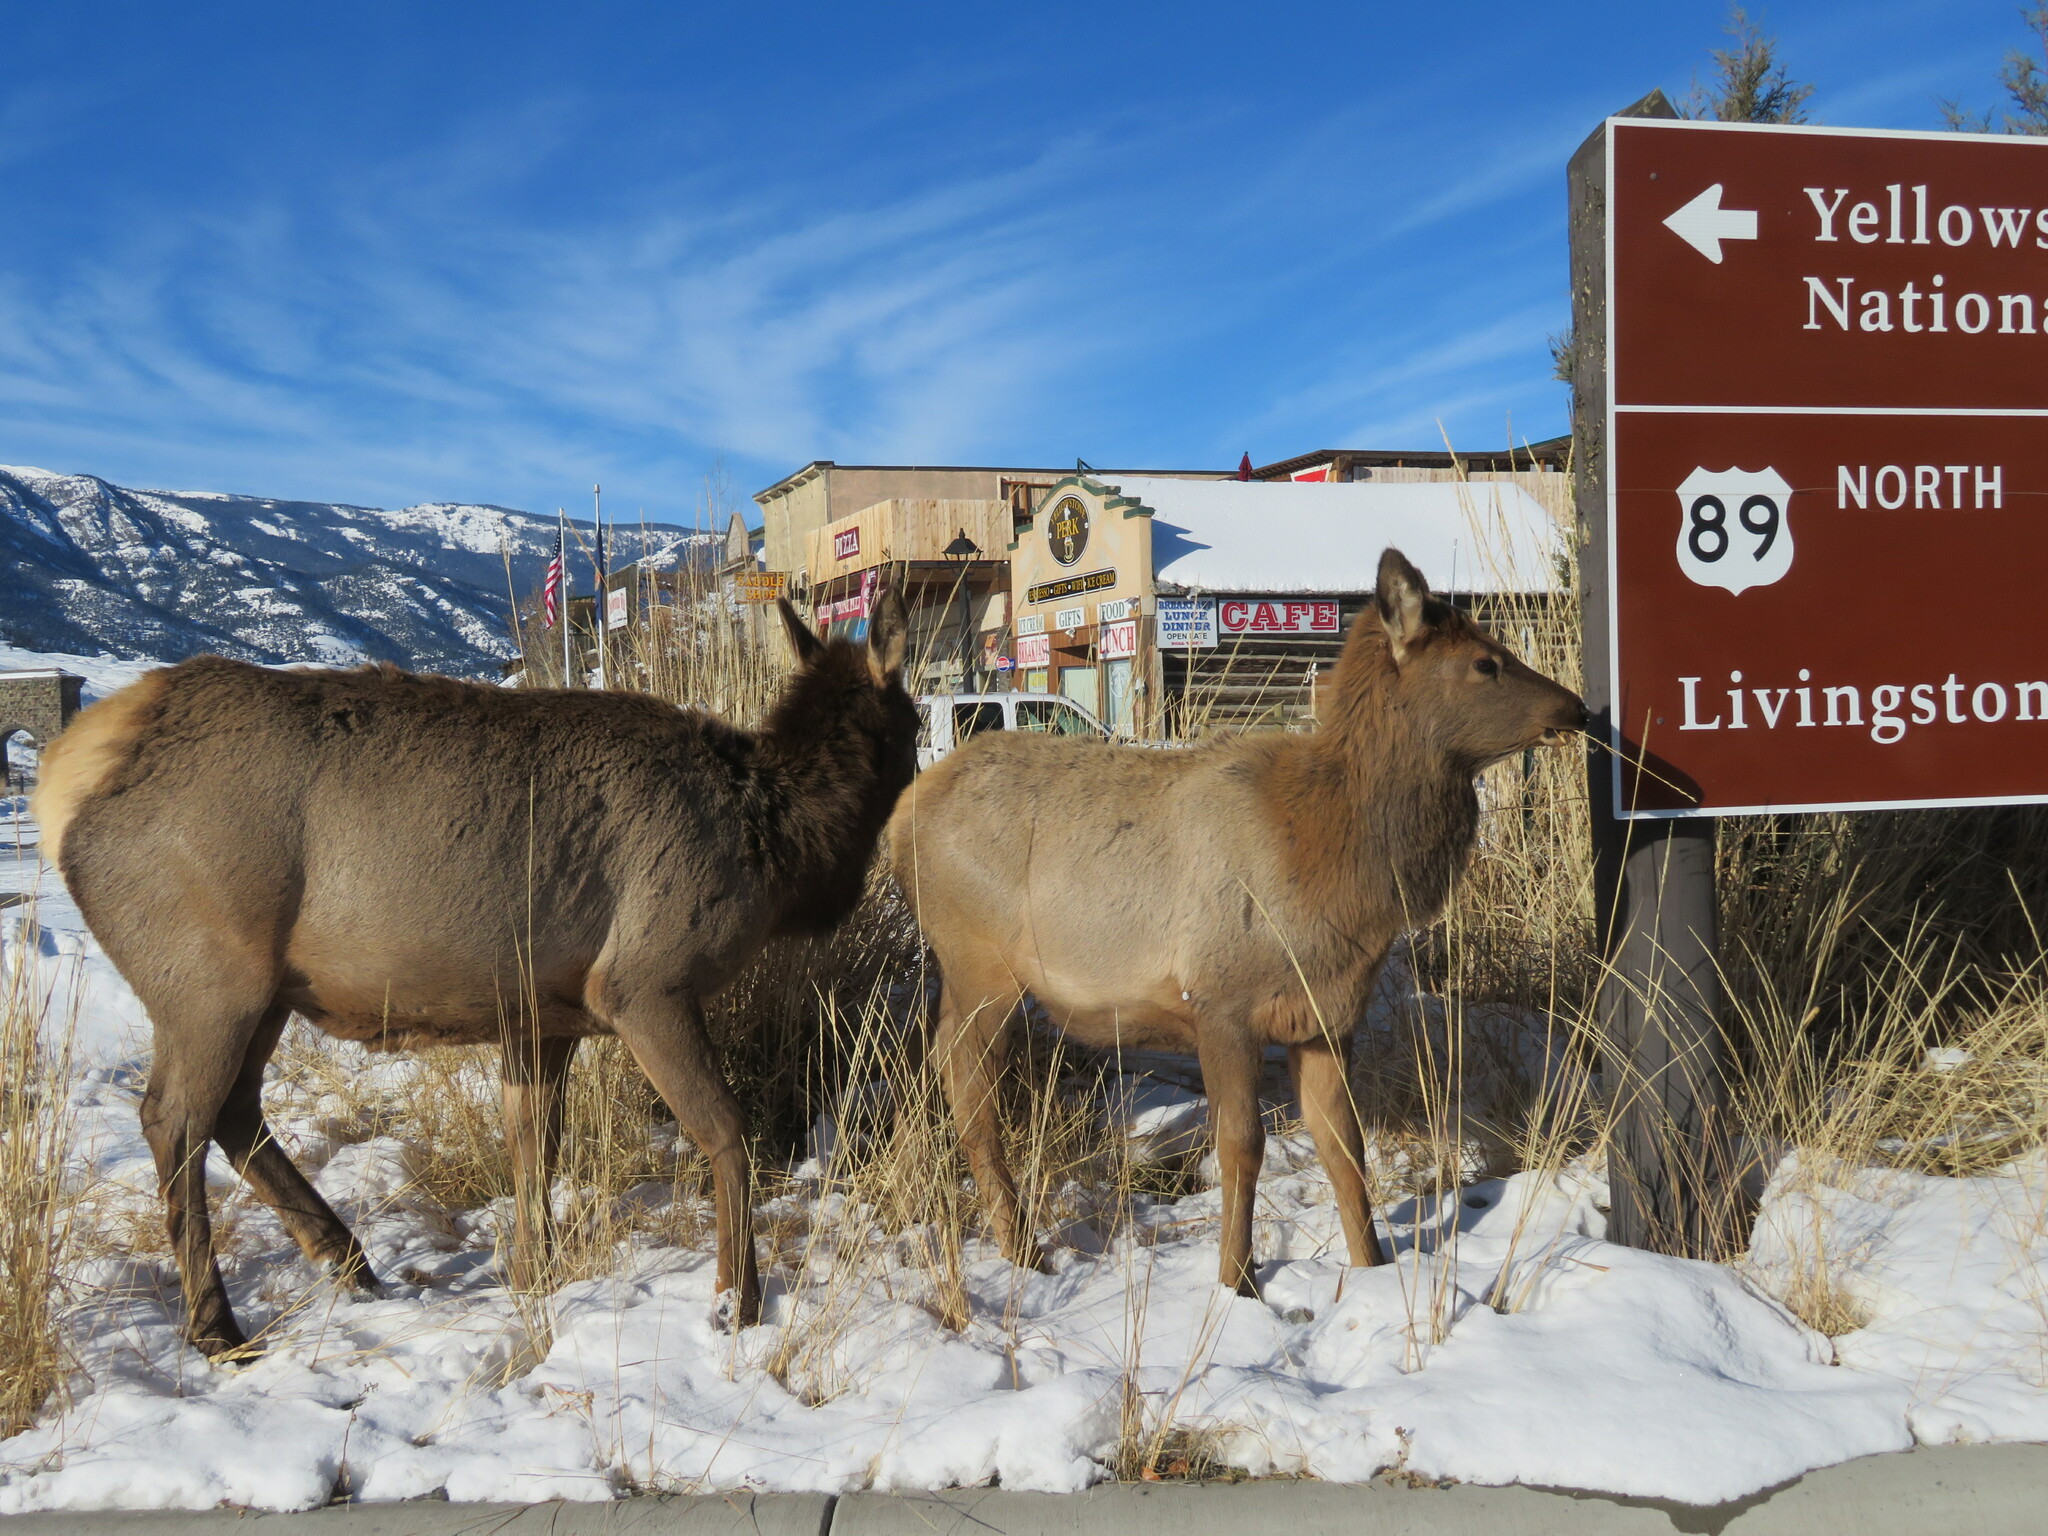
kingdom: Animalia
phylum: Chordata
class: Mammalia
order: Artiodactyla
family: Cervidae
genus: Cervus
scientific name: Cervus elaphus
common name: Red deer
